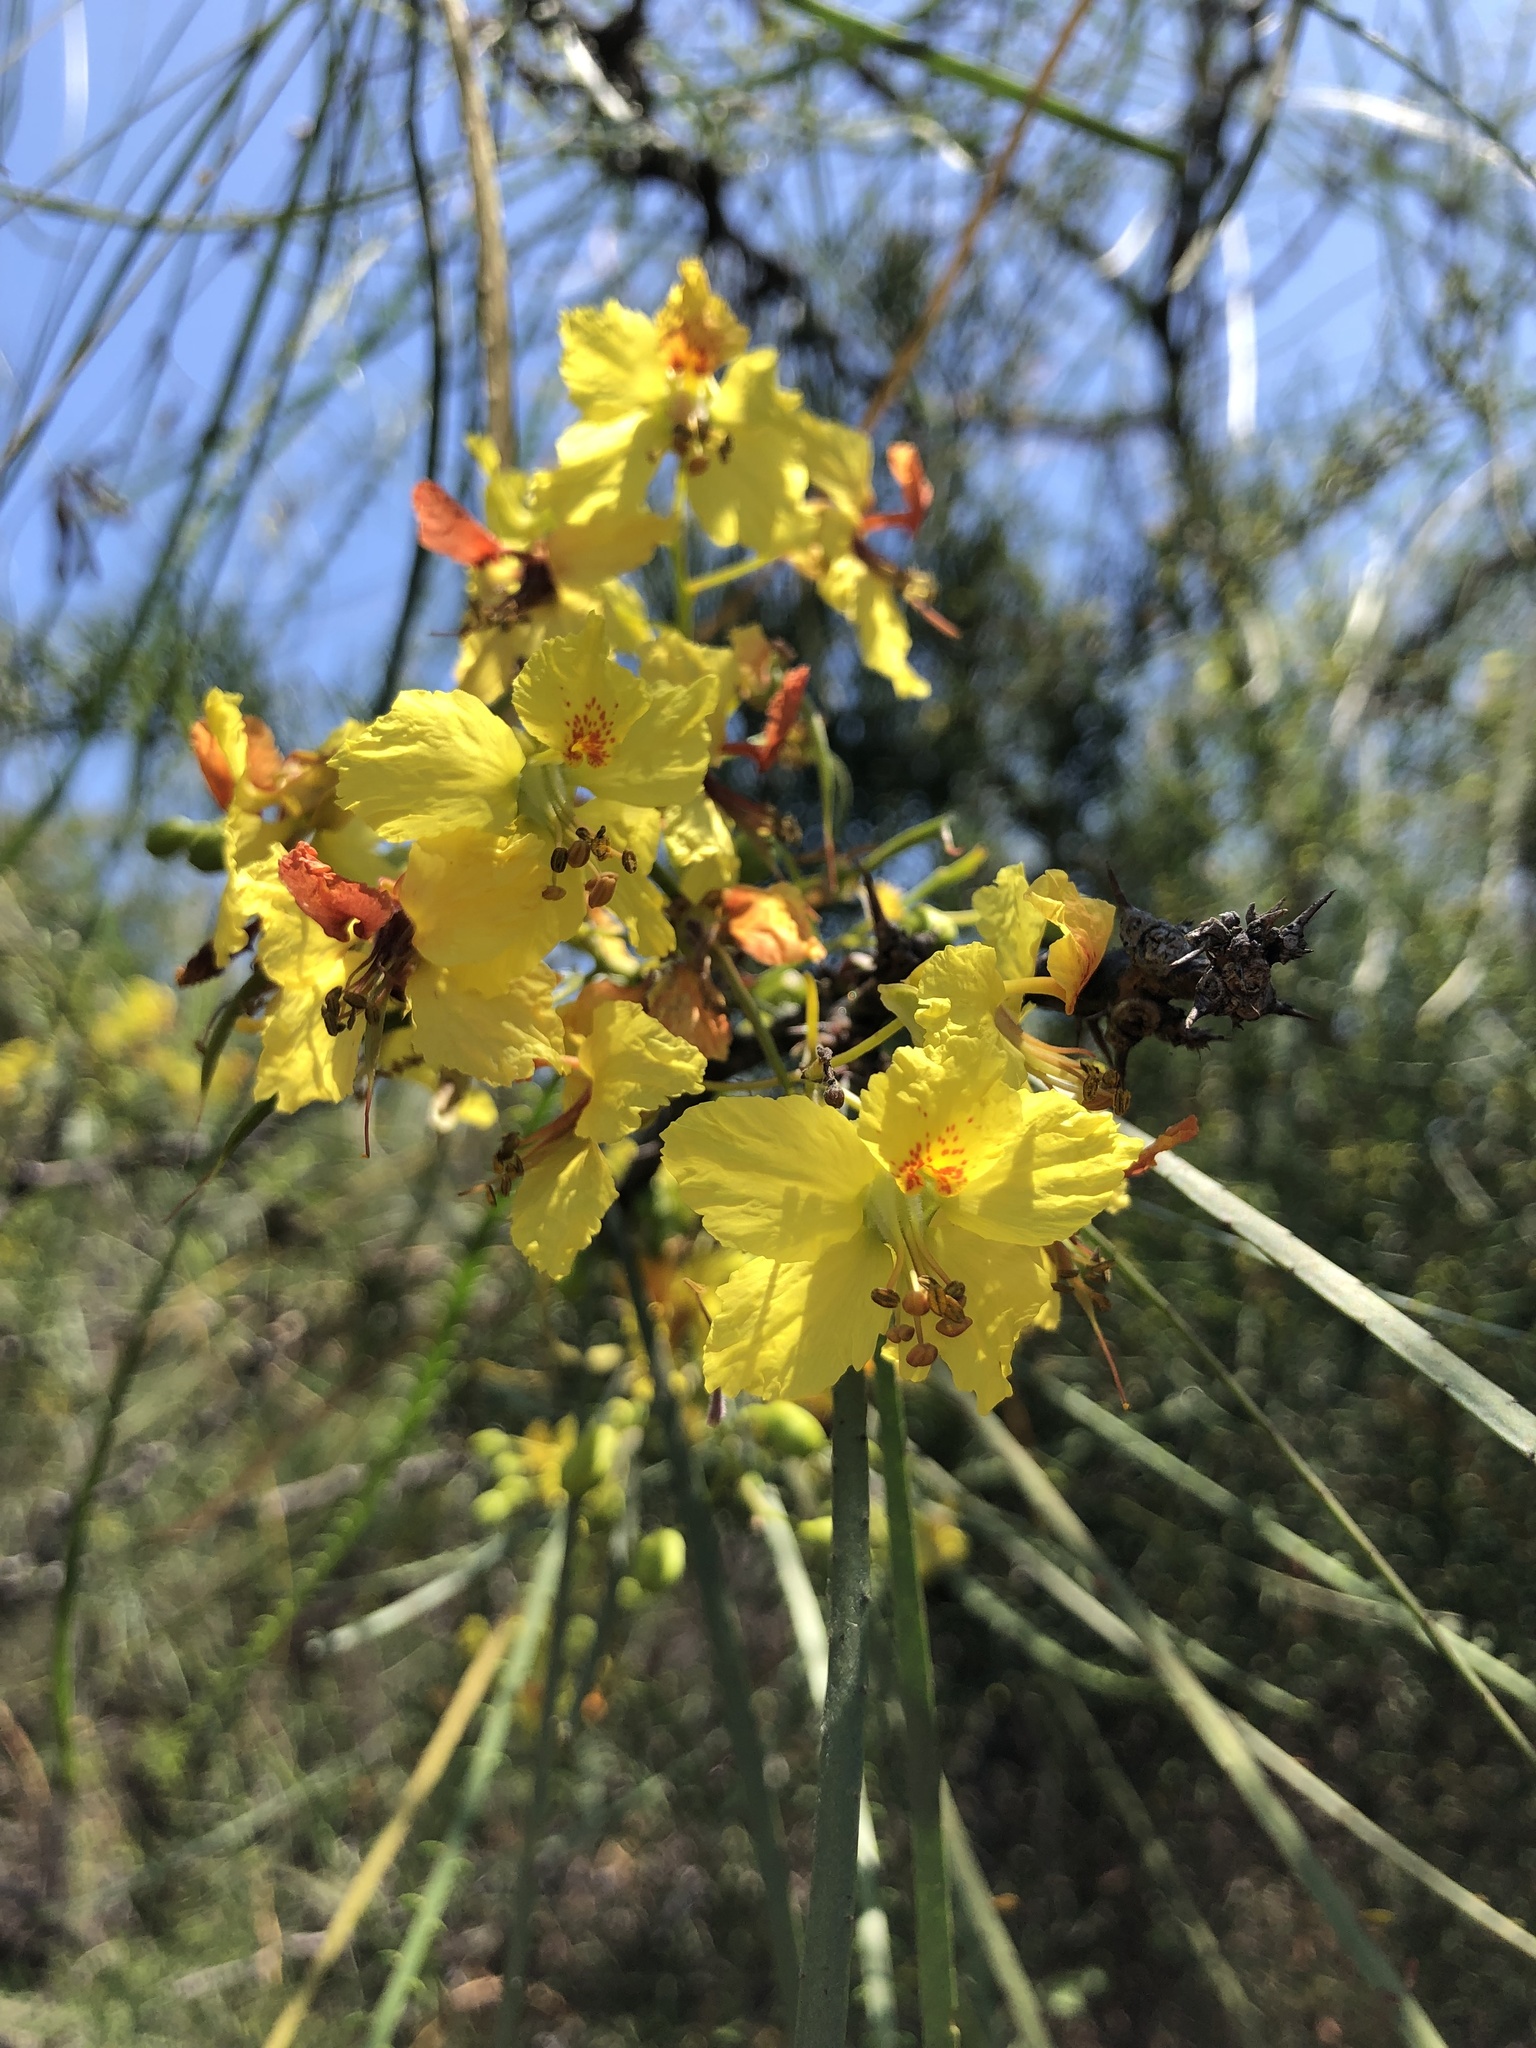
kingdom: Plantae
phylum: Tracheophyta
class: Magnoliopsida
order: Fabales
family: Fabaceae
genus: Parkinsonia
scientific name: Parkinsonia aculeata
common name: Jerusalem thorn
